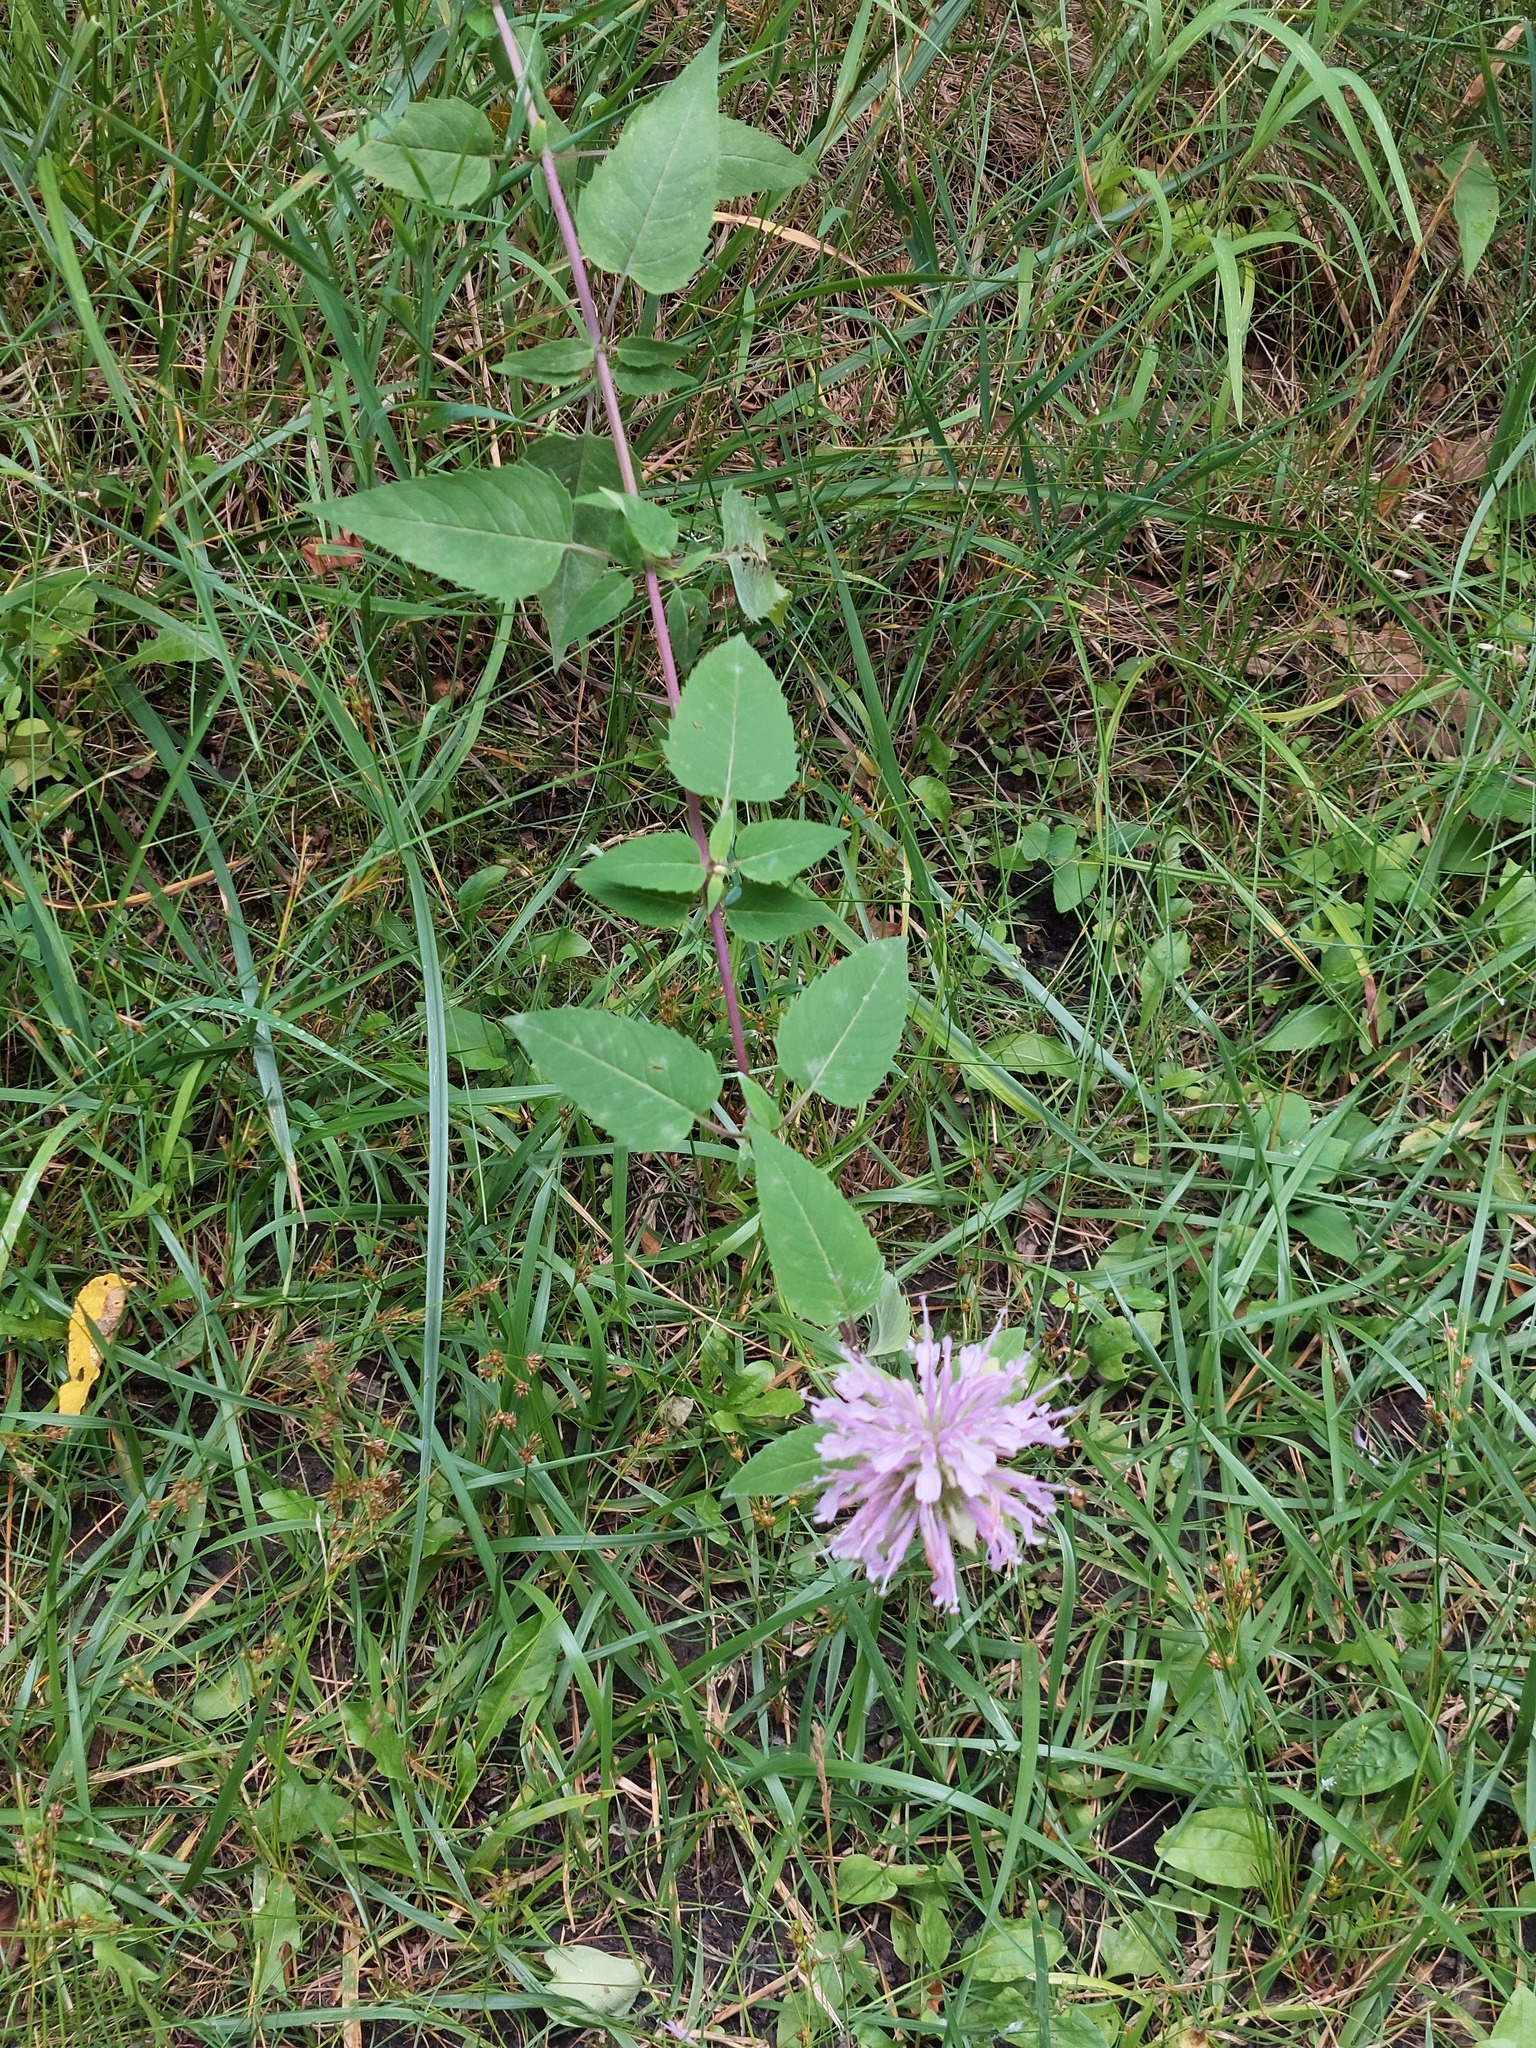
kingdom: Plantae
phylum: Tracheophyta
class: Magnoliopsida
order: Lamiales
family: Lamiaceae
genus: Monarda
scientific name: Monarda fistulosa
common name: Purple beebalm
